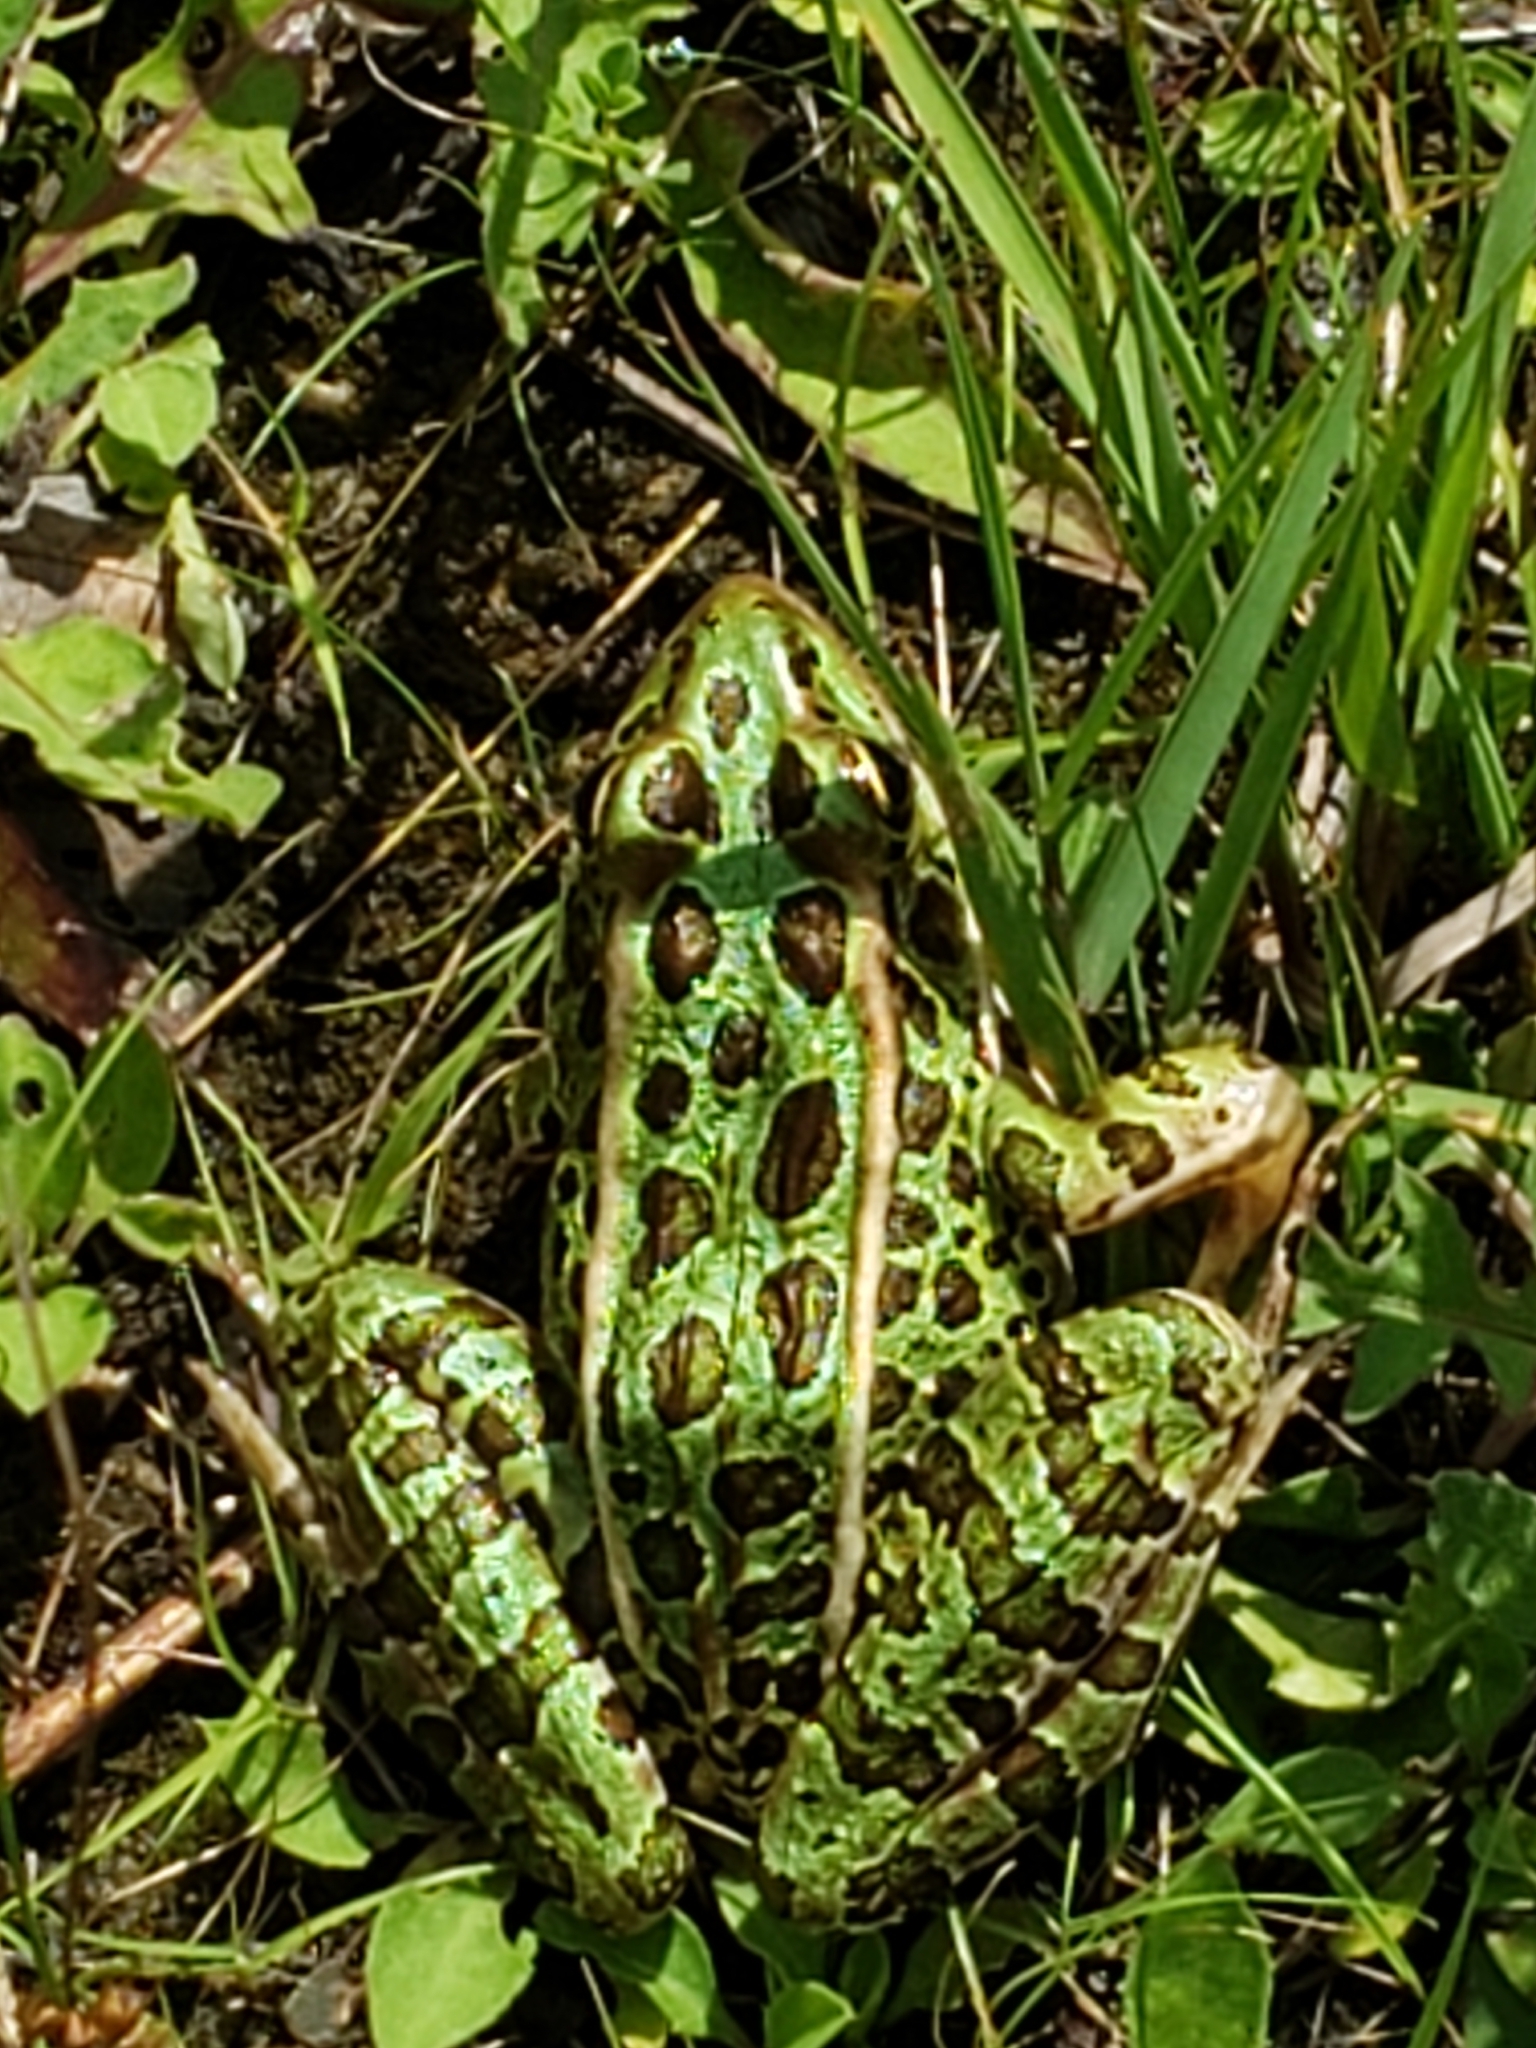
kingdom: Animalia
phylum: Chordata
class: Amphibia
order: Anura
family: Ranidae
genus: Lithobates
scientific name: Lithobates pipiens
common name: Northern leopard frog
